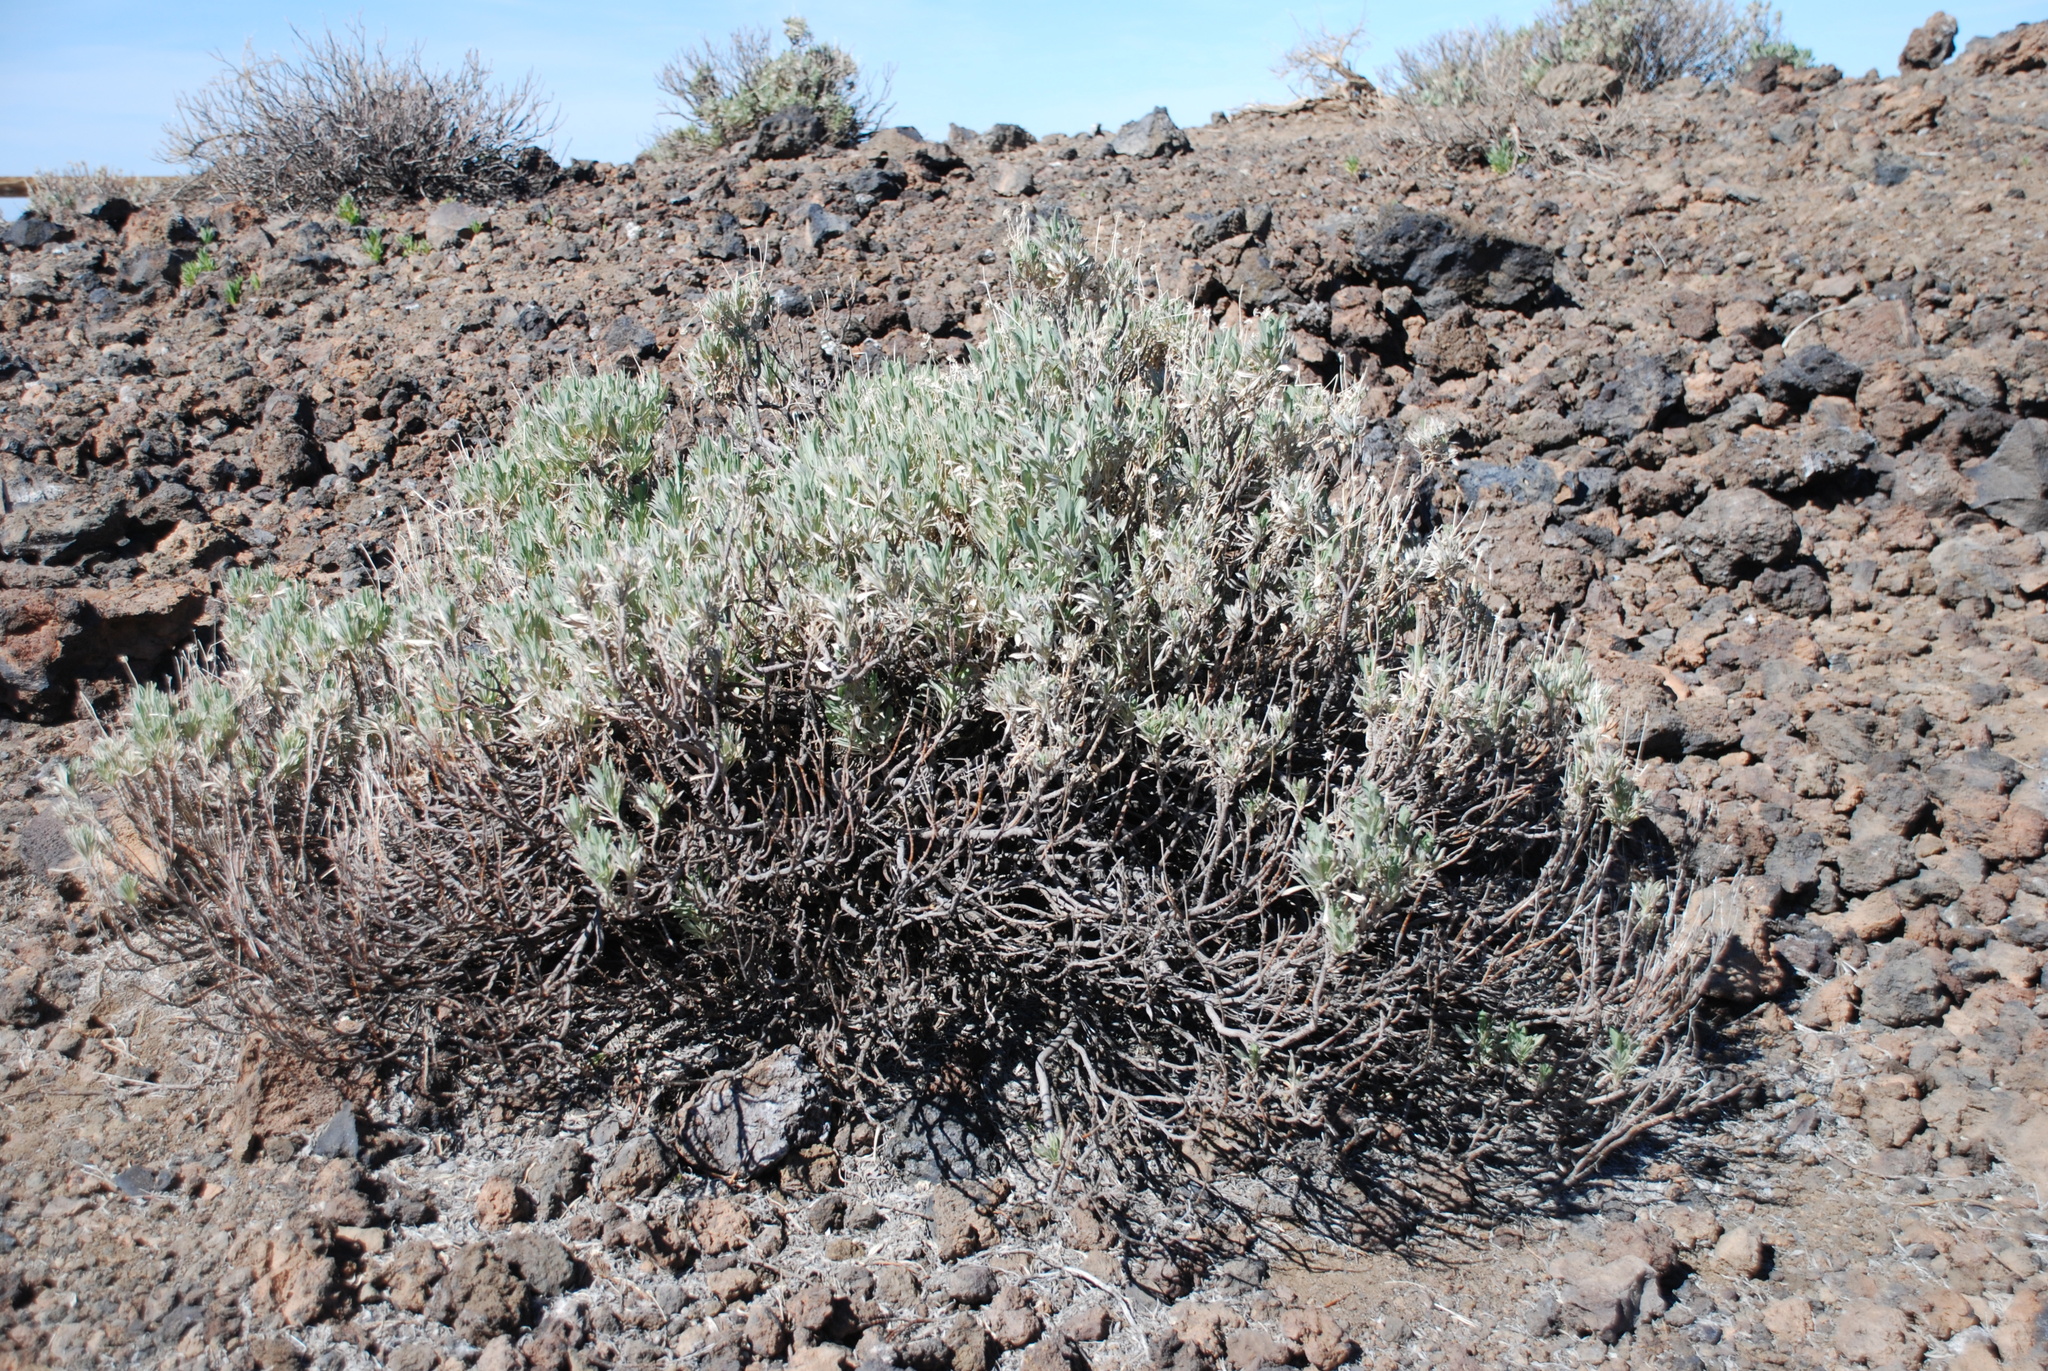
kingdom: Plantae
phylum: Tracheophyta
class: Magnoliopsida
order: Dipsacales
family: Caprifoliaceae
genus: Pterocephalus
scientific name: Pterocephalus lasiospermus
